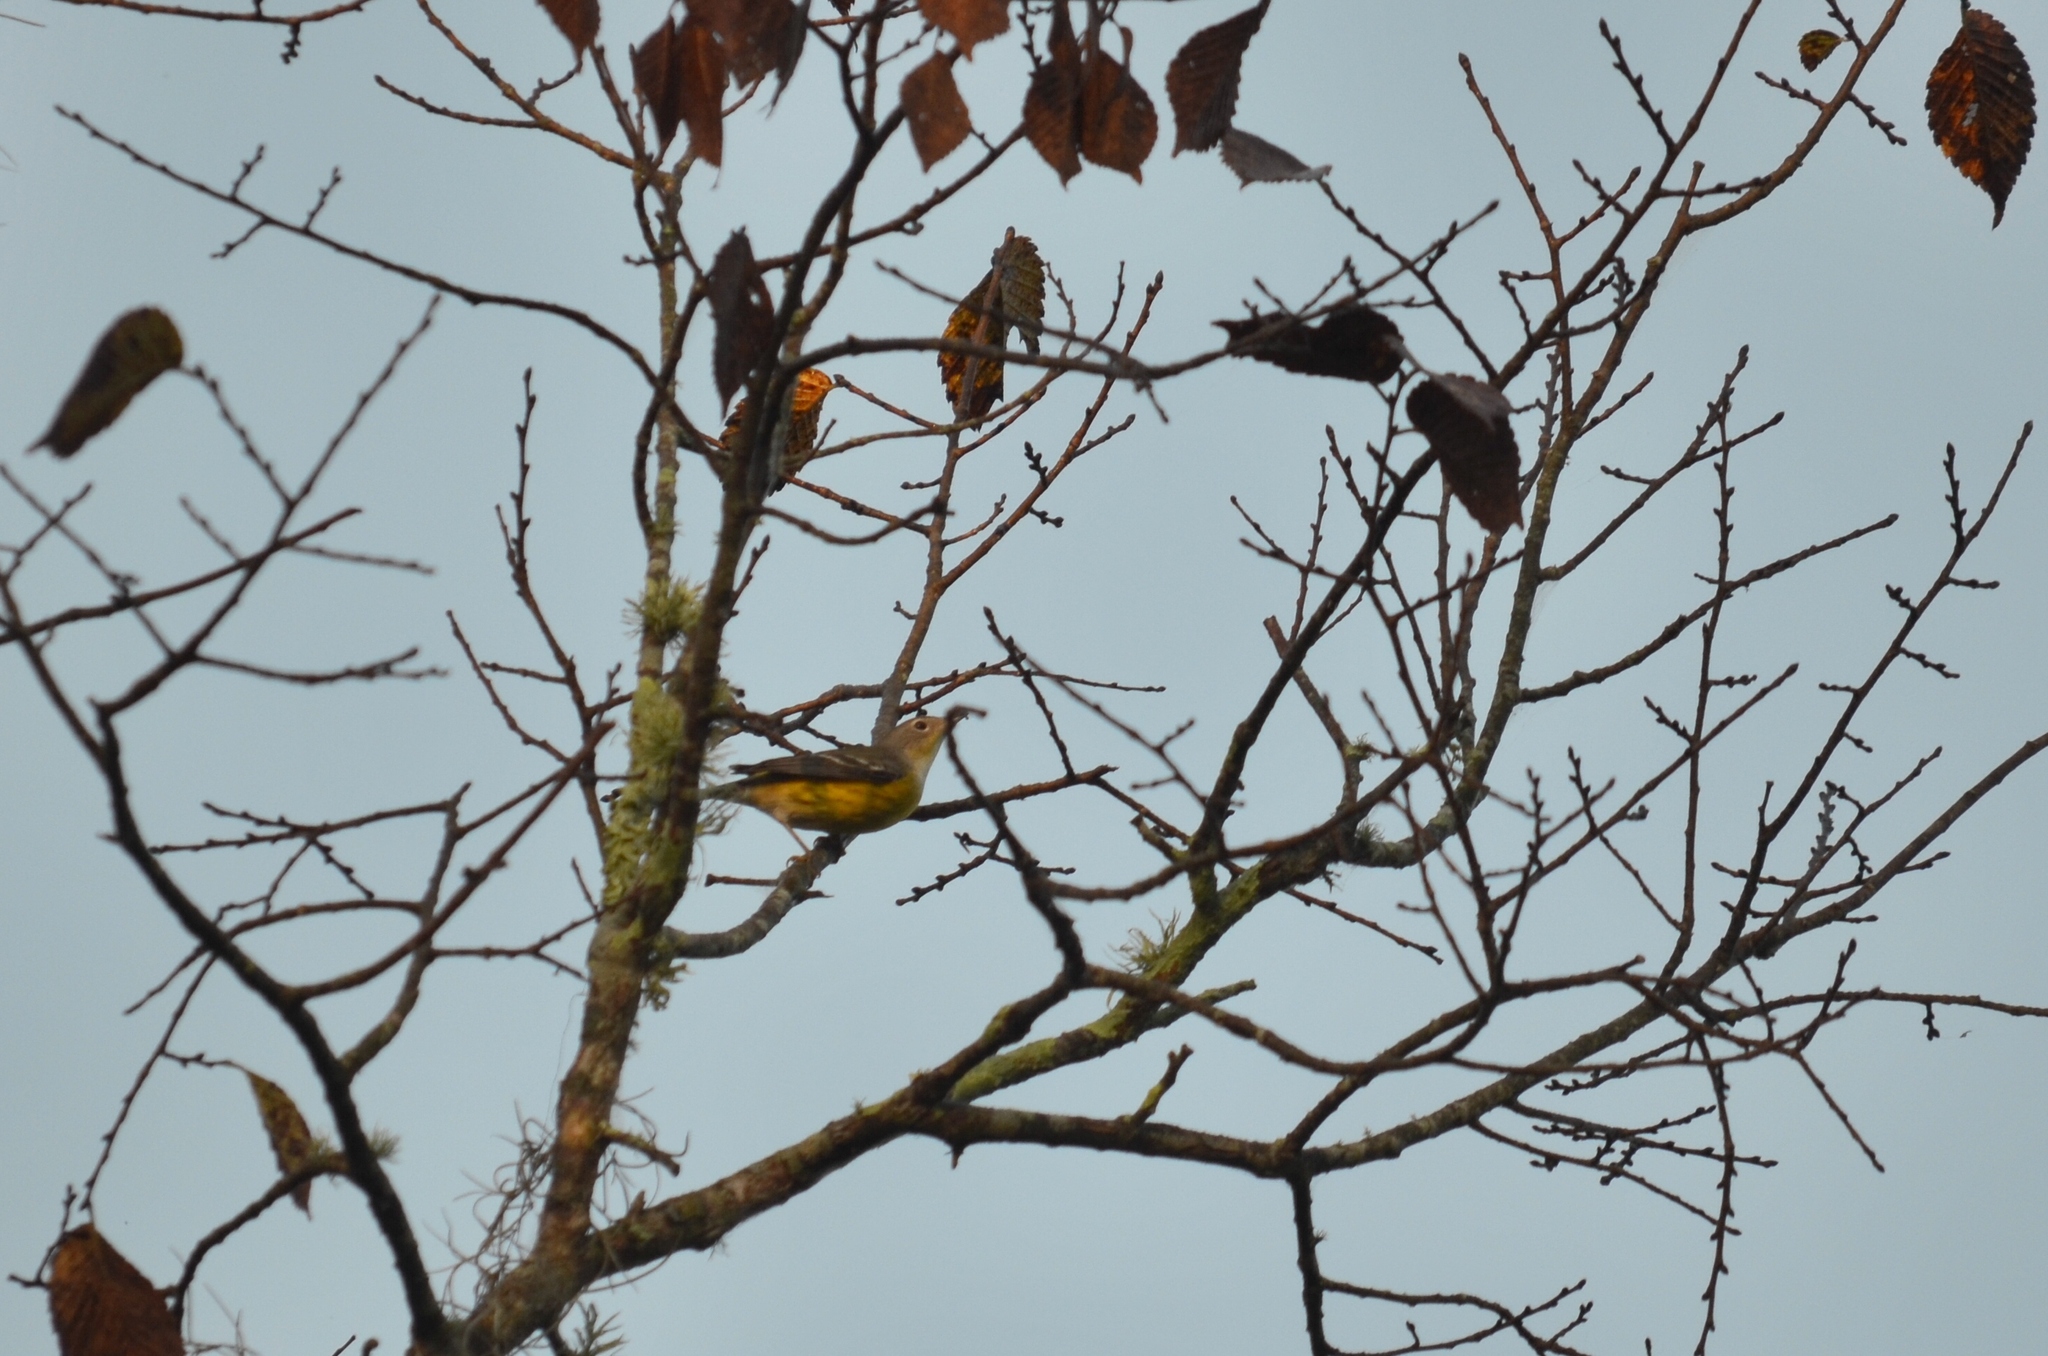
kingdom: Animalia
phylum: Chordata
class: Aves
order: Passeriformes
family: Parulidae
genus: Setophaga
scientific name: Setophaga magnolia
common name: Magnolia warbler
